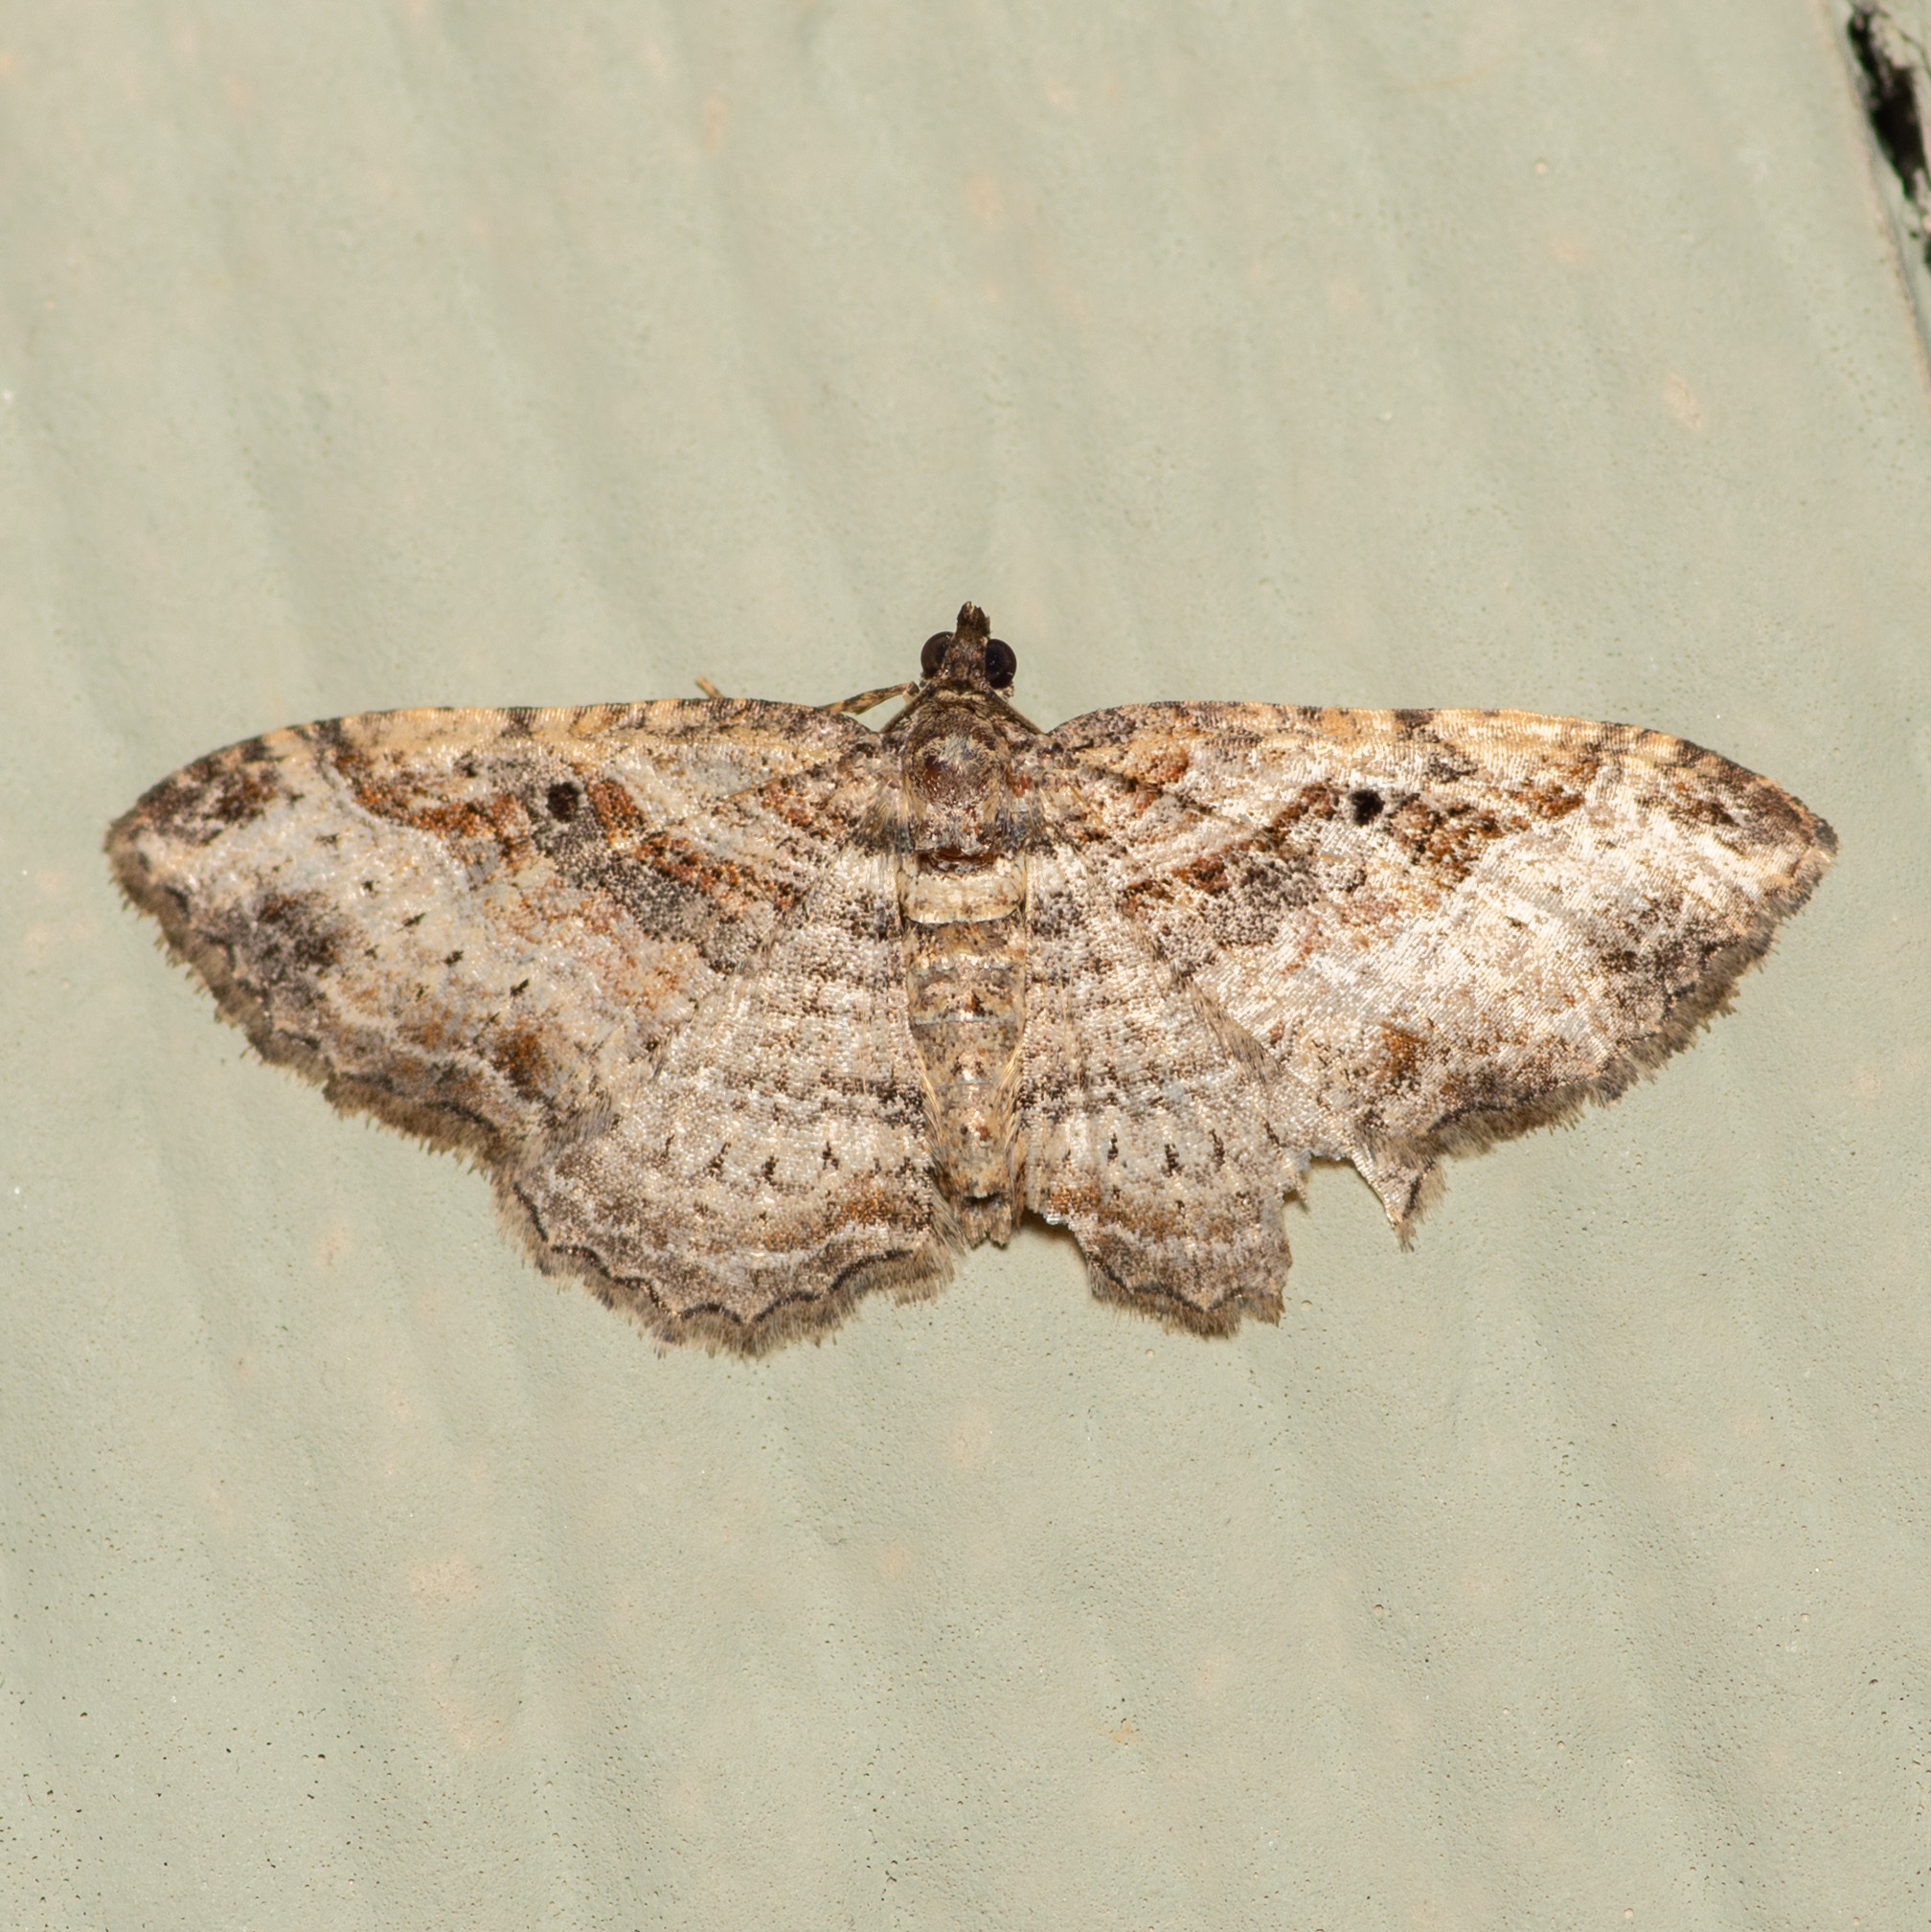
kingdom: Animalia
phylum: Arthropoda
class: Insecta
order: Lepidoptera
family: Geometridae
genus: Costaconvexa
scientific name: Costaconvexa centrostrigaria
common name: Bent-line carpet
